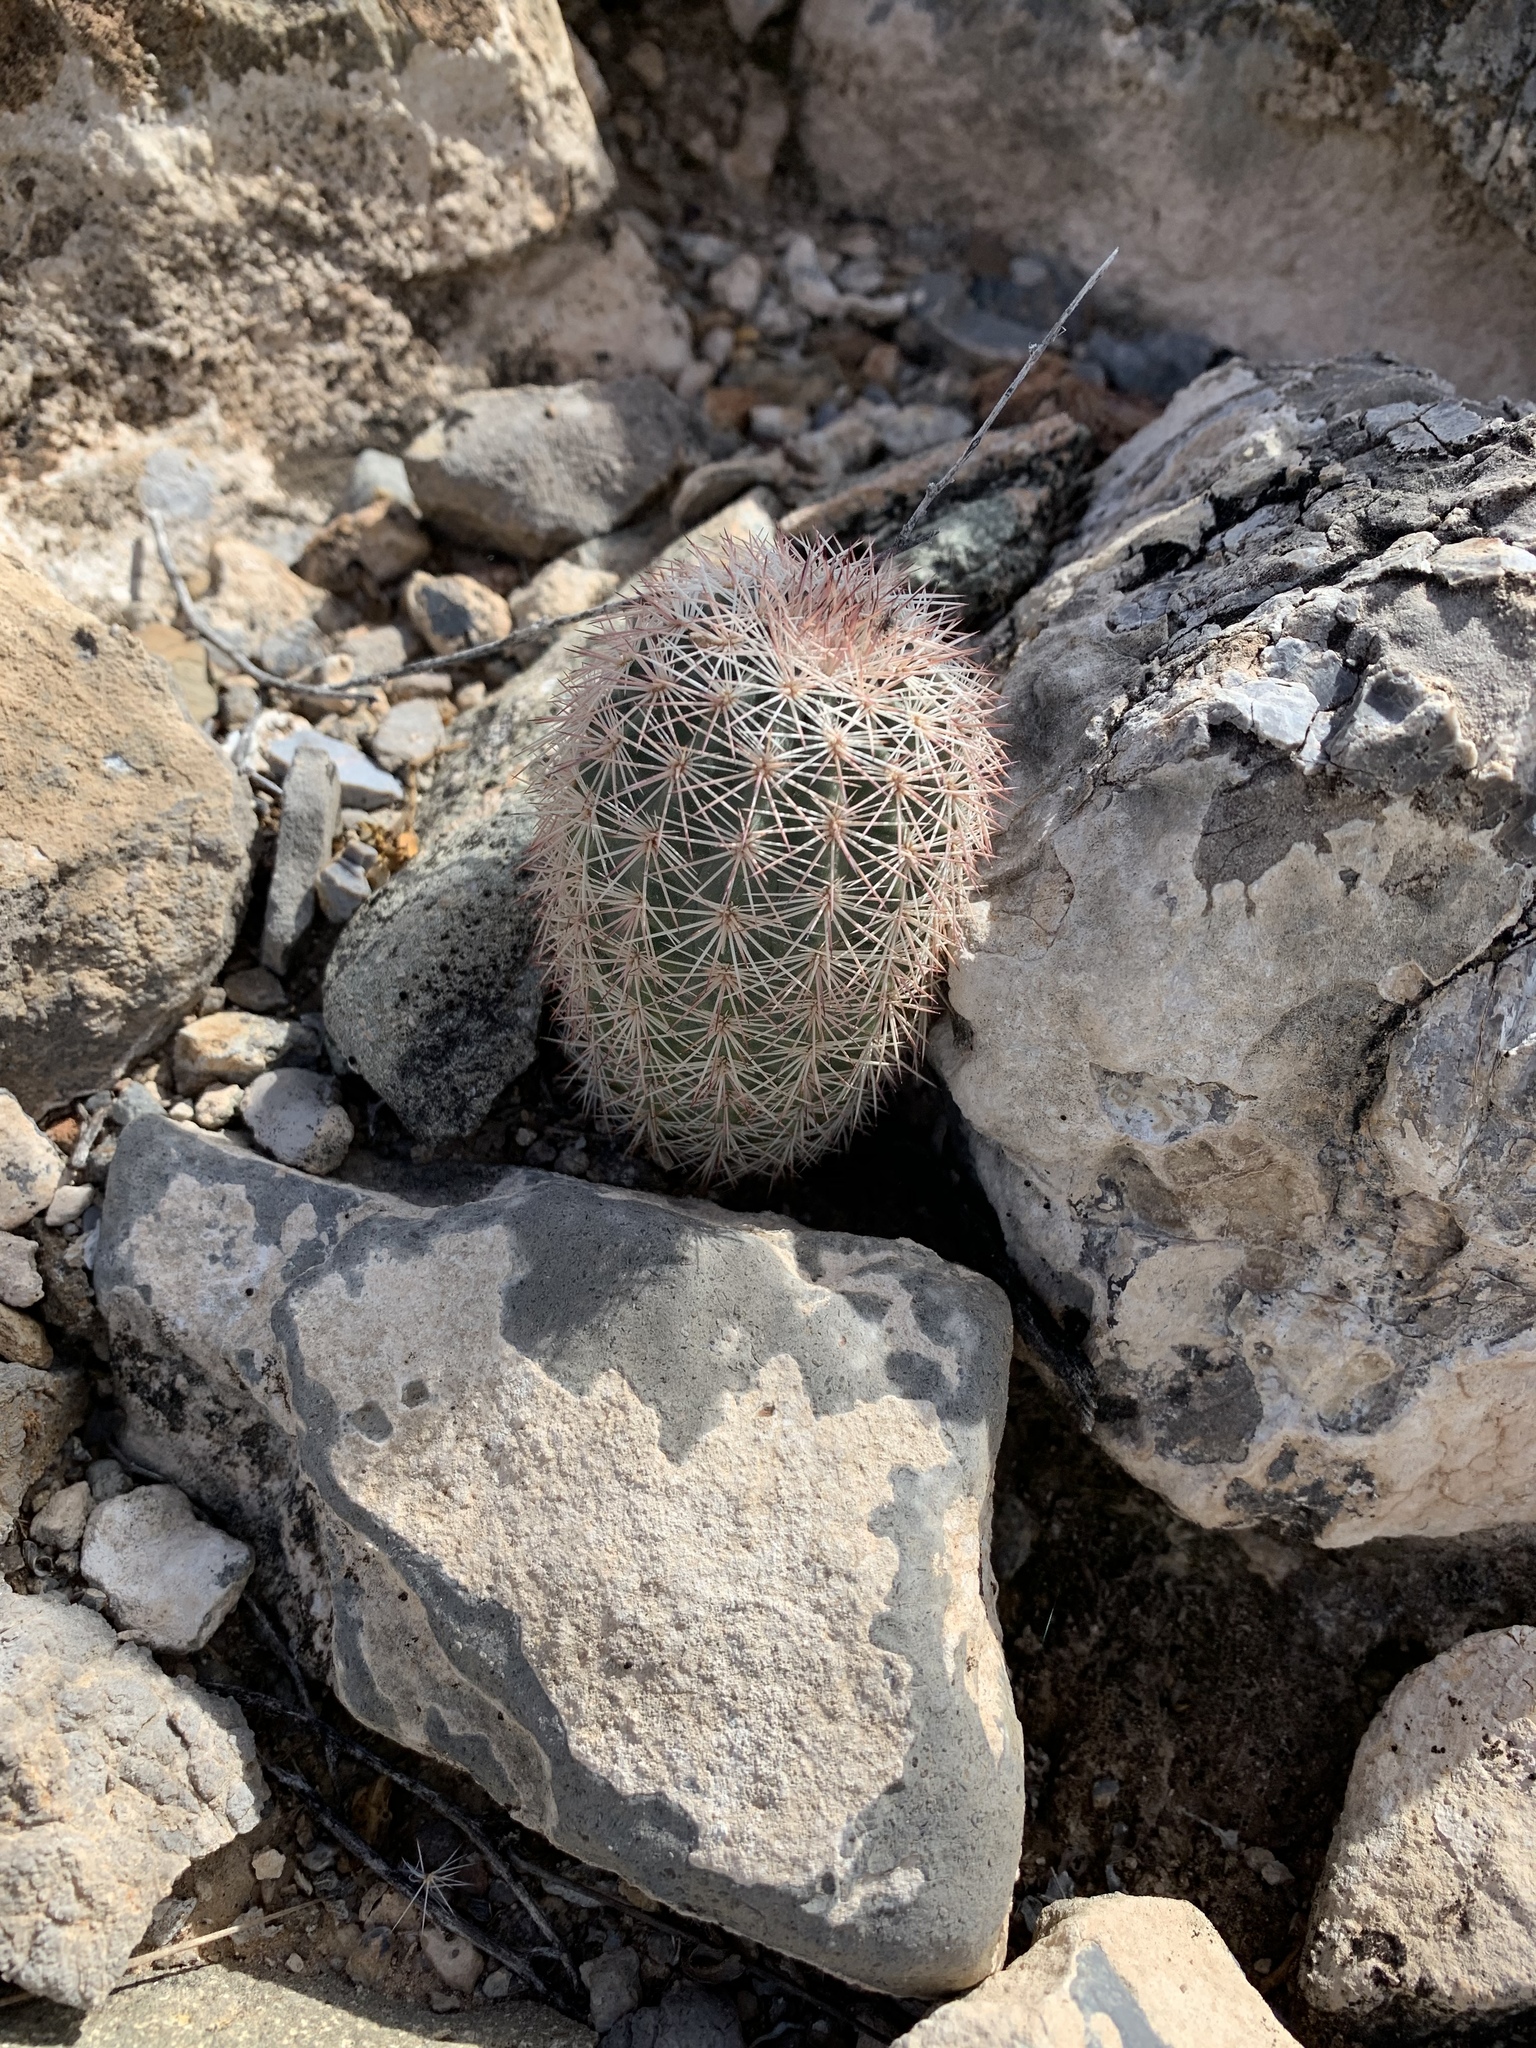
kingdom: Plantae
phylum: Tracheophyta
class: Magnoliopsida
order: Caryophyllales
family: Cactaceae
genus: Echinocereus
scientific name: Echinocereus dasyacanthus
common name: Spiny hedgehog cactus
